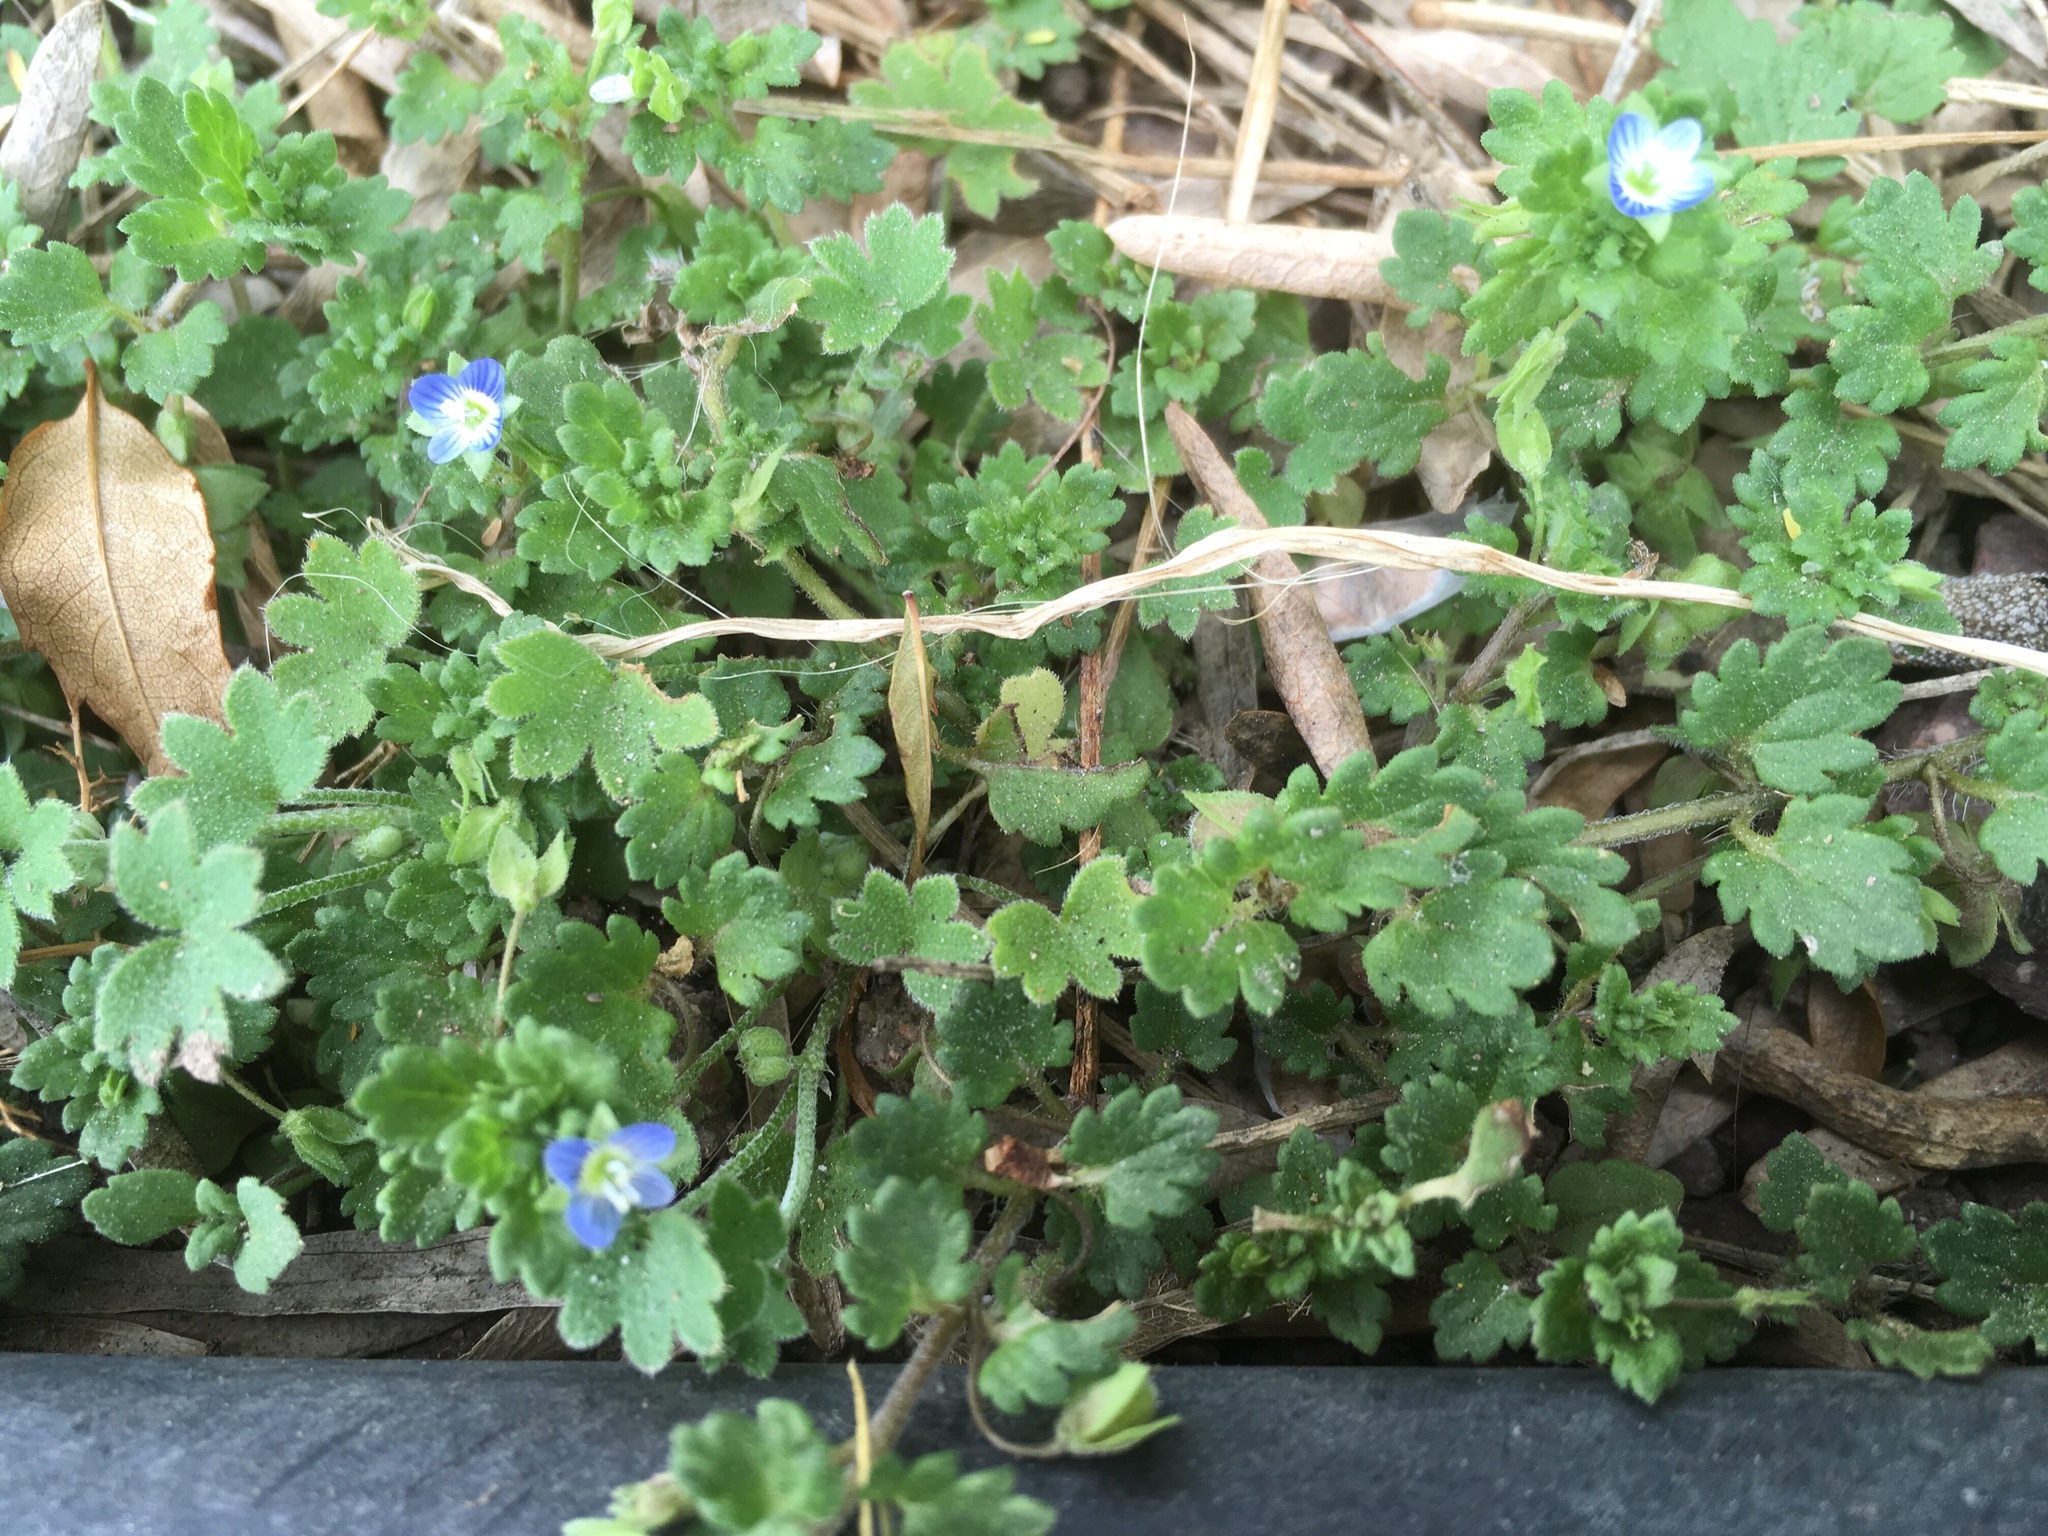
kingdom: Plantae
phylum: Tracheophyta
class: Magnoliopsida
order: Apiales
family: Apiaceae
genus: Bowlesia
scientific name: Bowlesia incana
